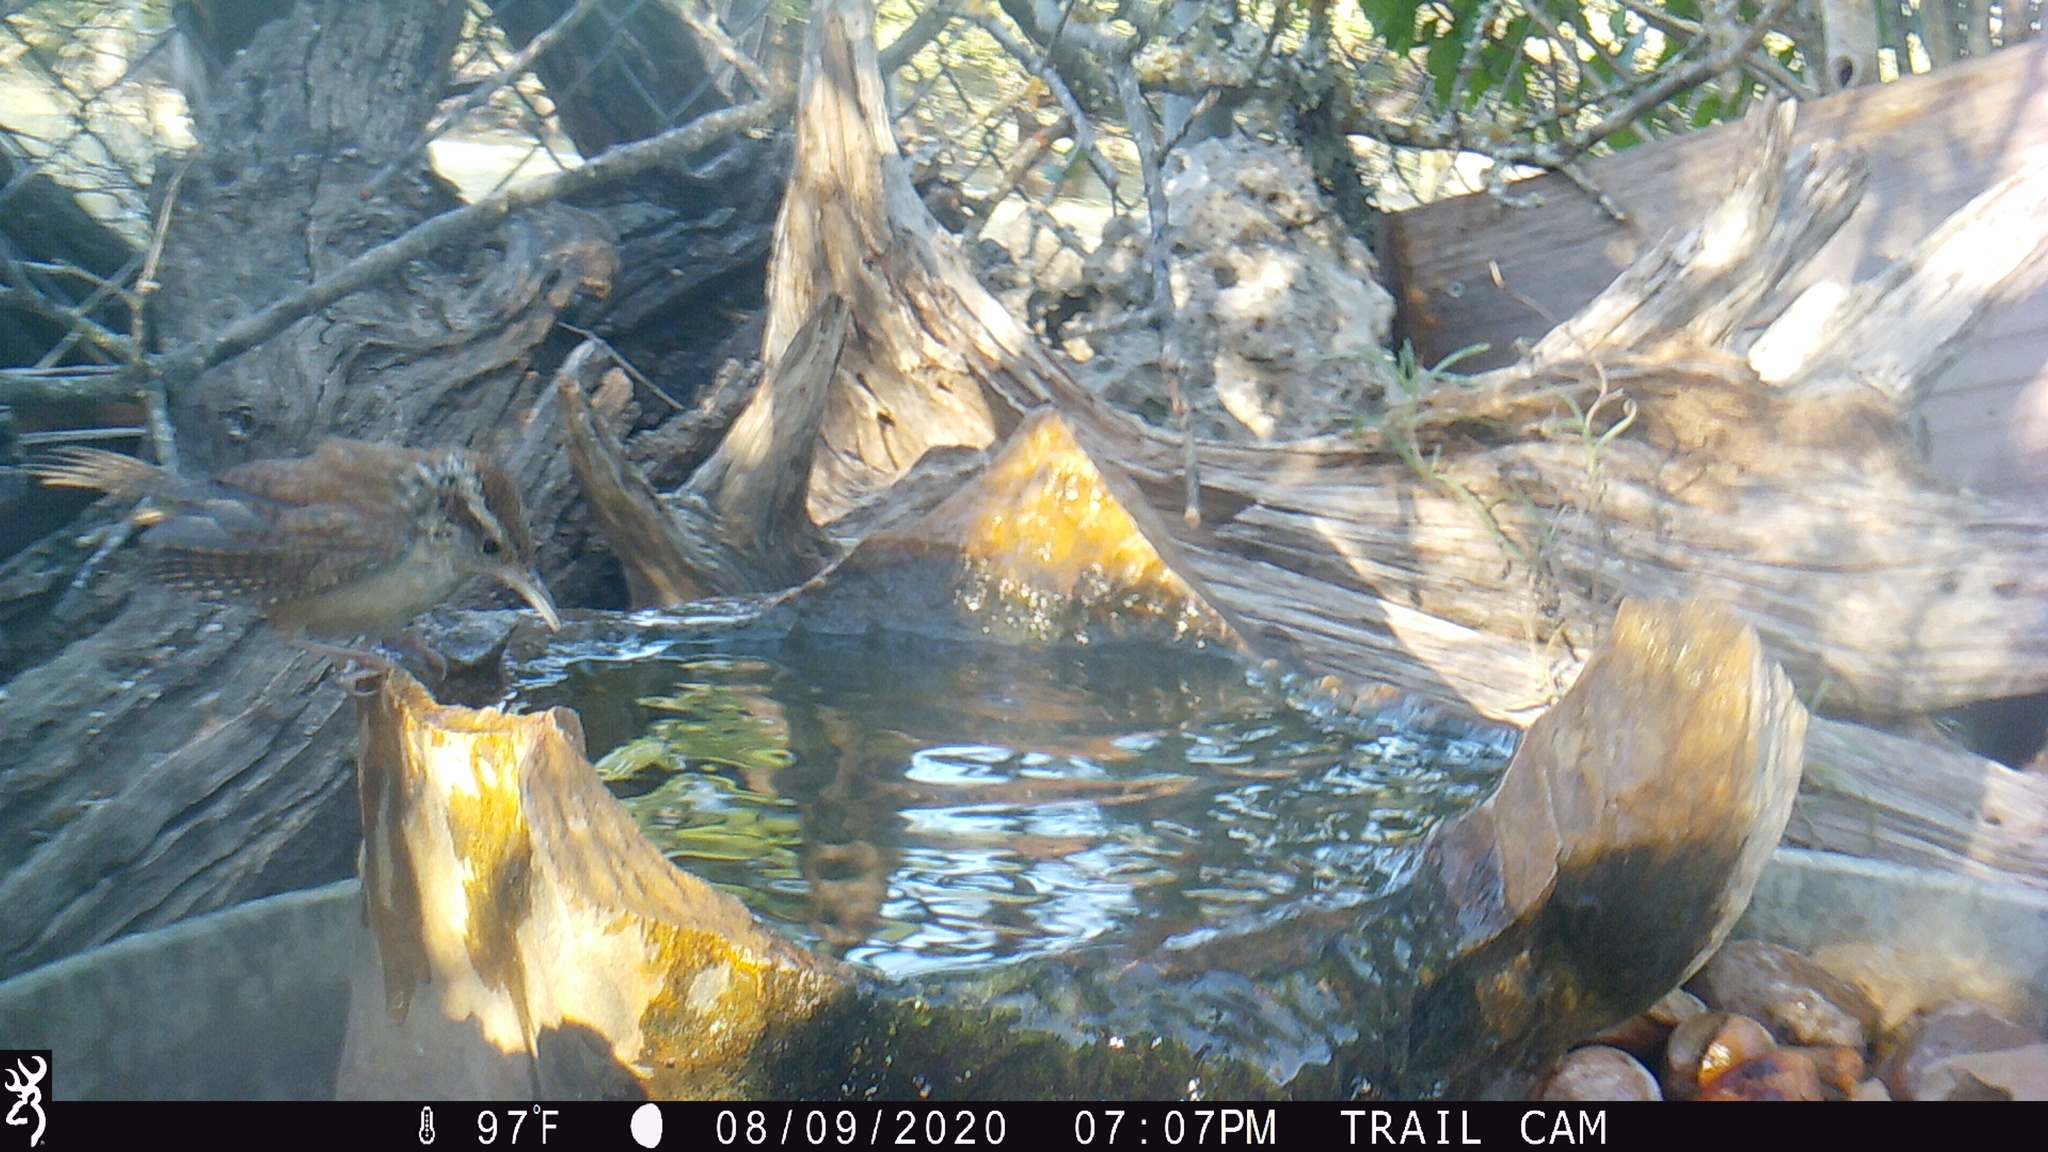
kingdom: Animalia
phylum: Chordata
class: Aves
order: Passeriformes
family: Troglodytidae
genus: Thryothorus
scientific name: Thryothorus ludovicianus
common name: Carolina wren
